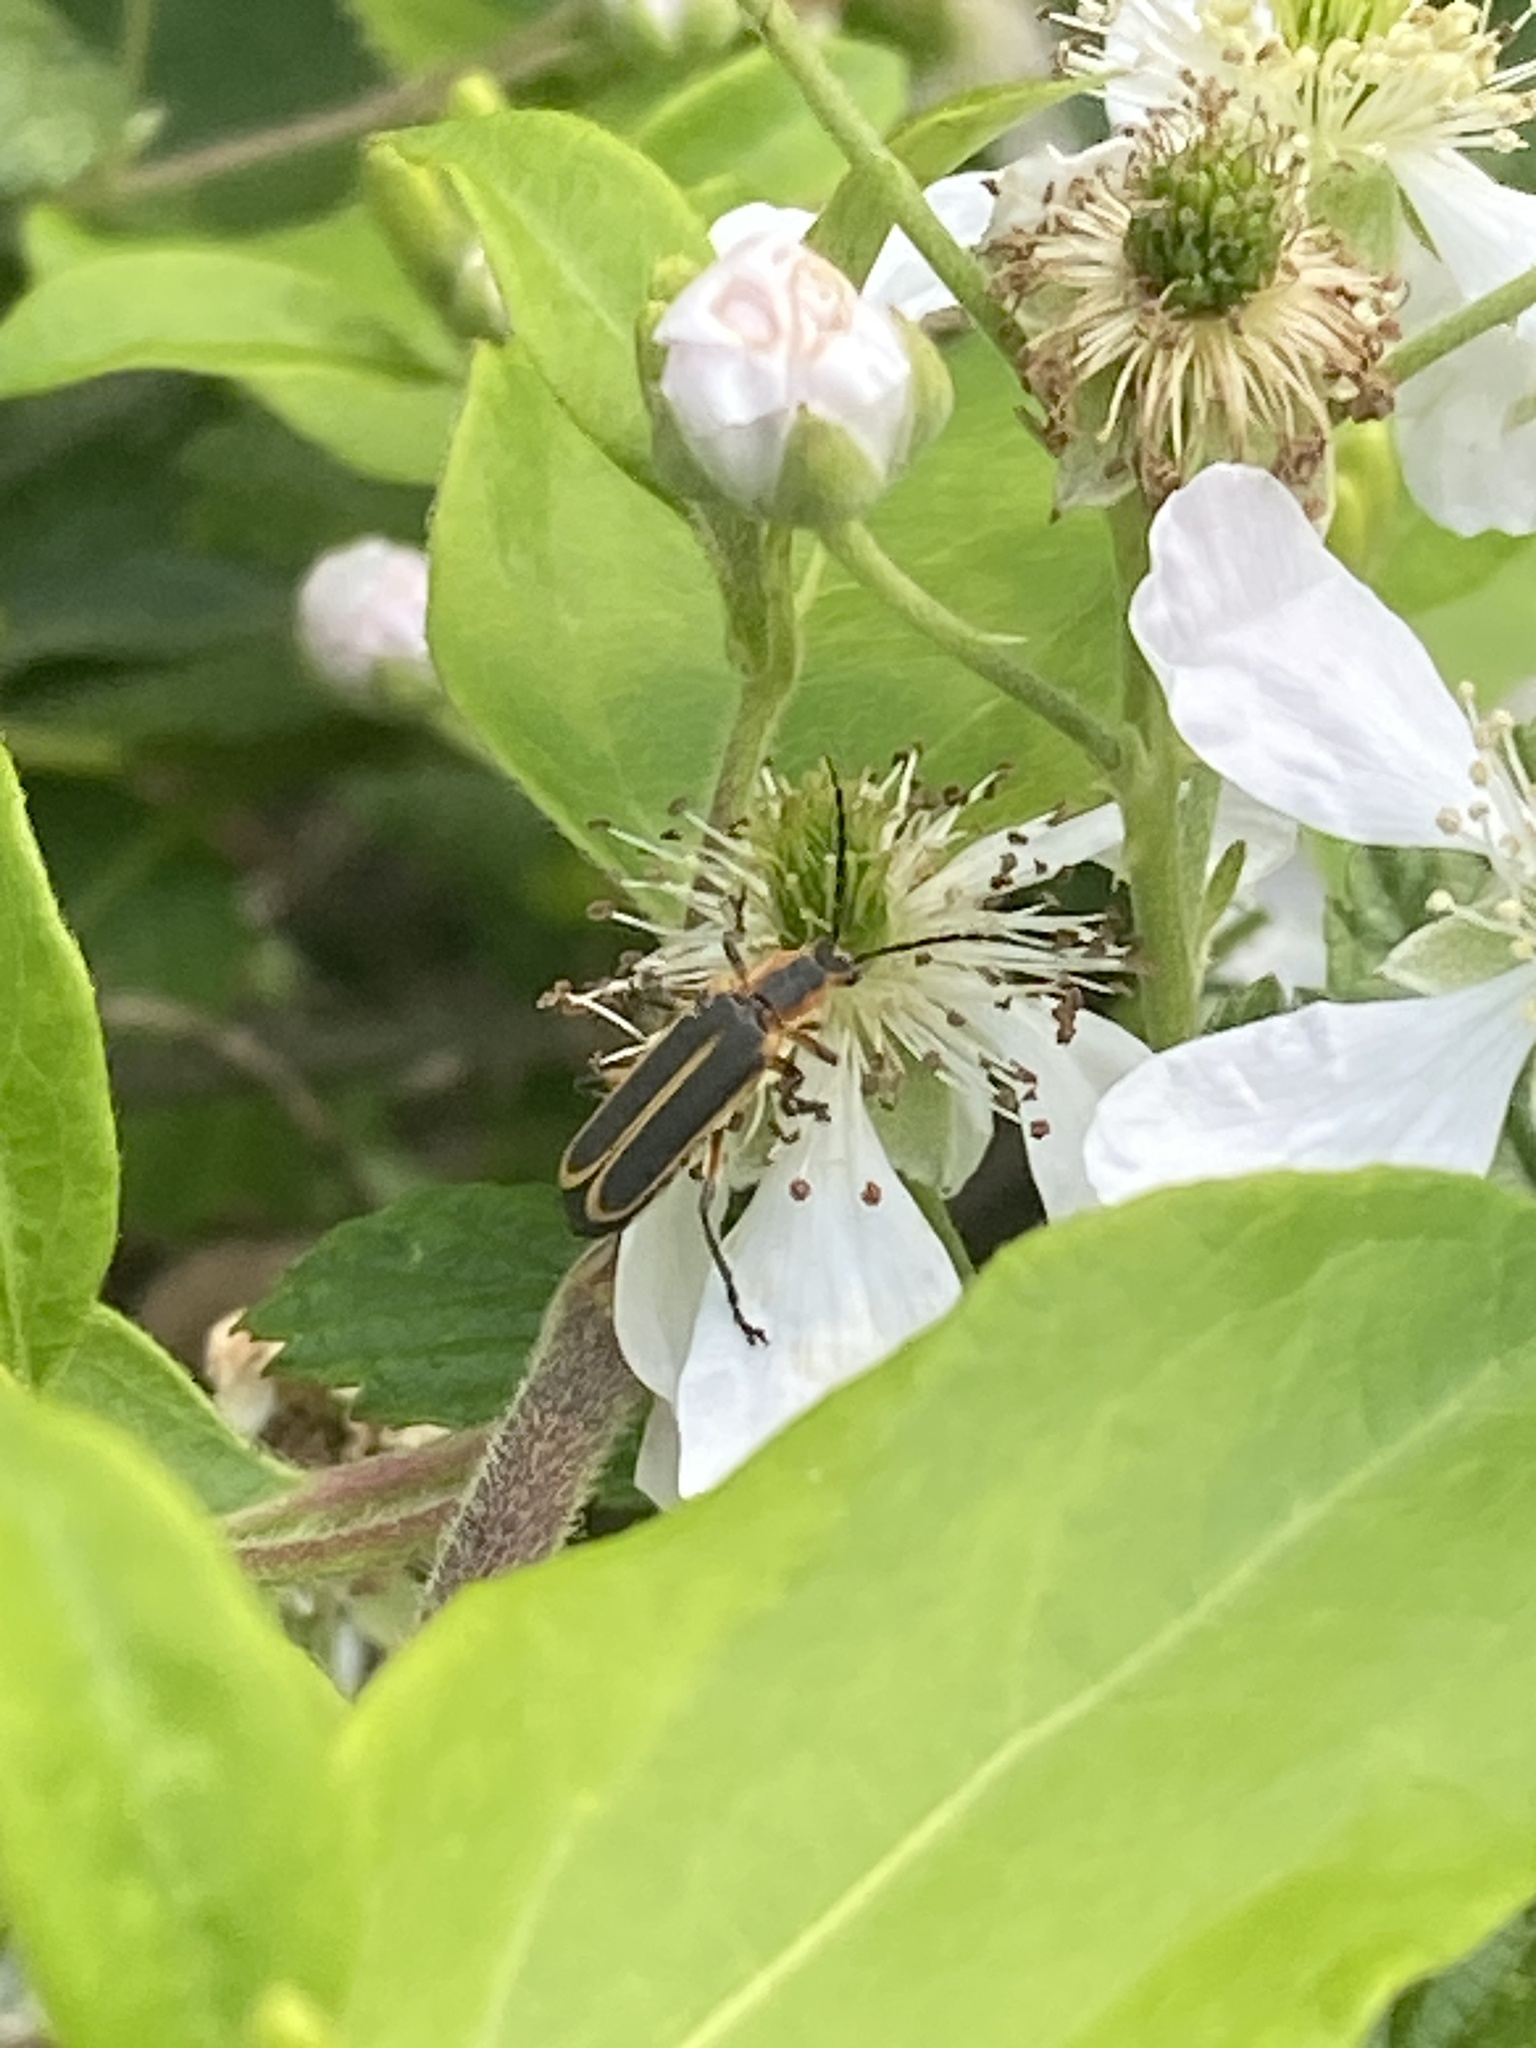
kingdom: Animalia
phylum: Arthropoda
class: Insecta
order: Coleoptera
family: Cantharidae
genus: Chauliognathus
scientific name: Chauliognathus marginatus
